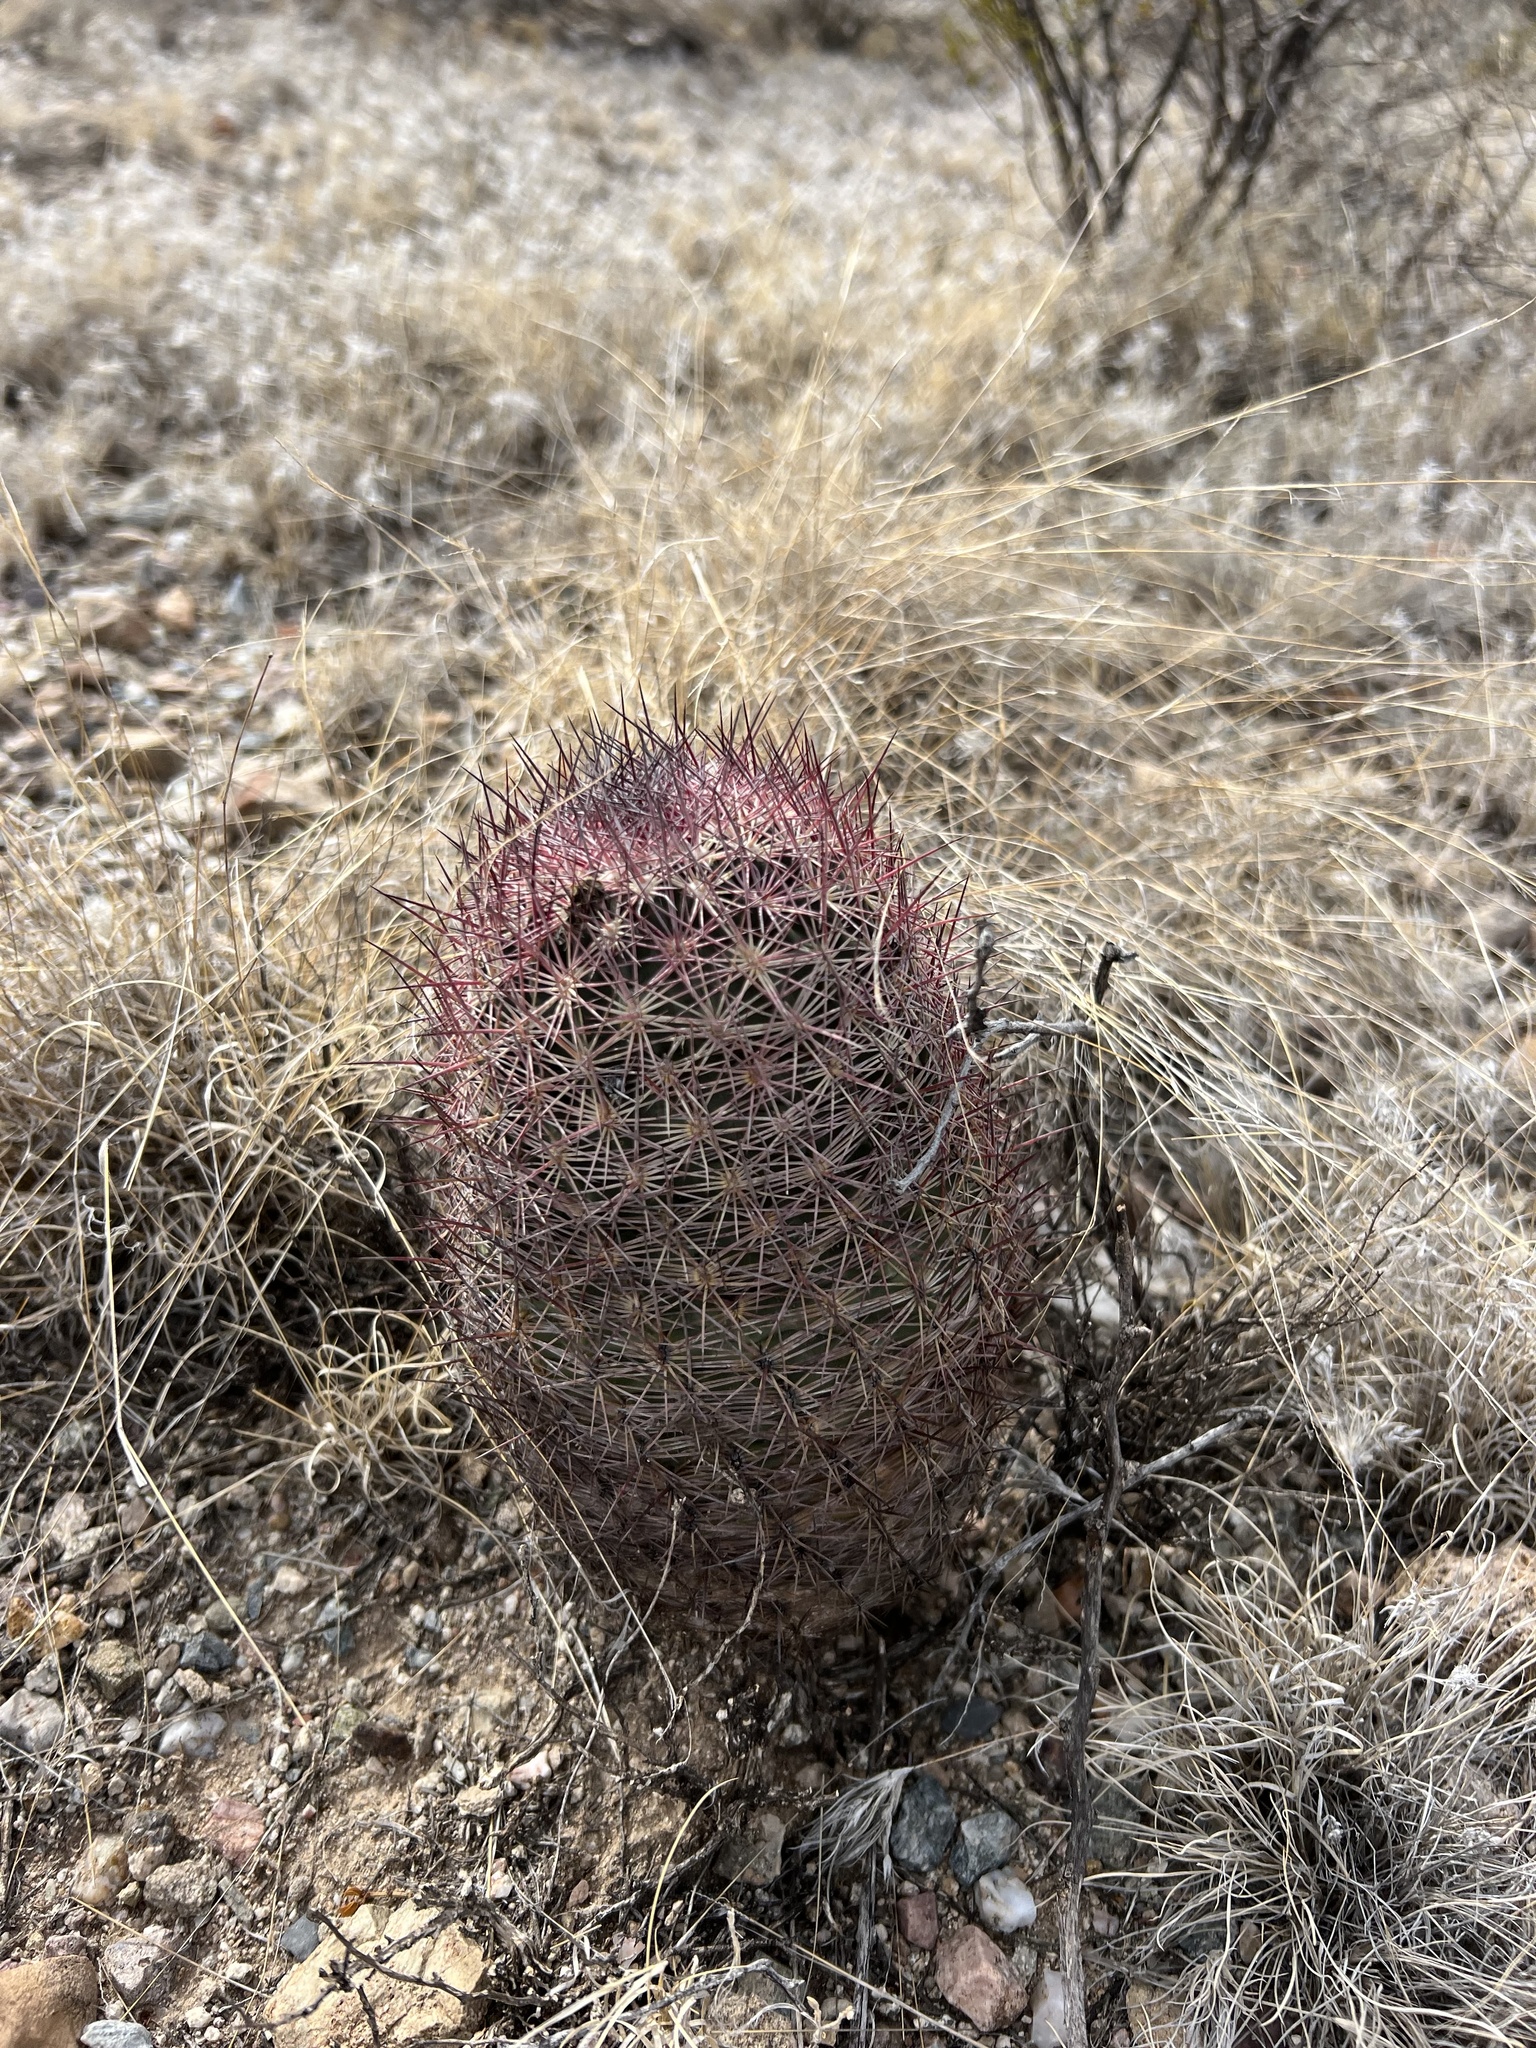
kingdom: Plantae
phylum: Tracheophyta
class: Magnoliopsida
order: Caryophyllales
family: Cactaceae
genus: Sclerocactus
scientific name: Sclerocactus johnsonii
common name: Eight-spine fishhook cactus
